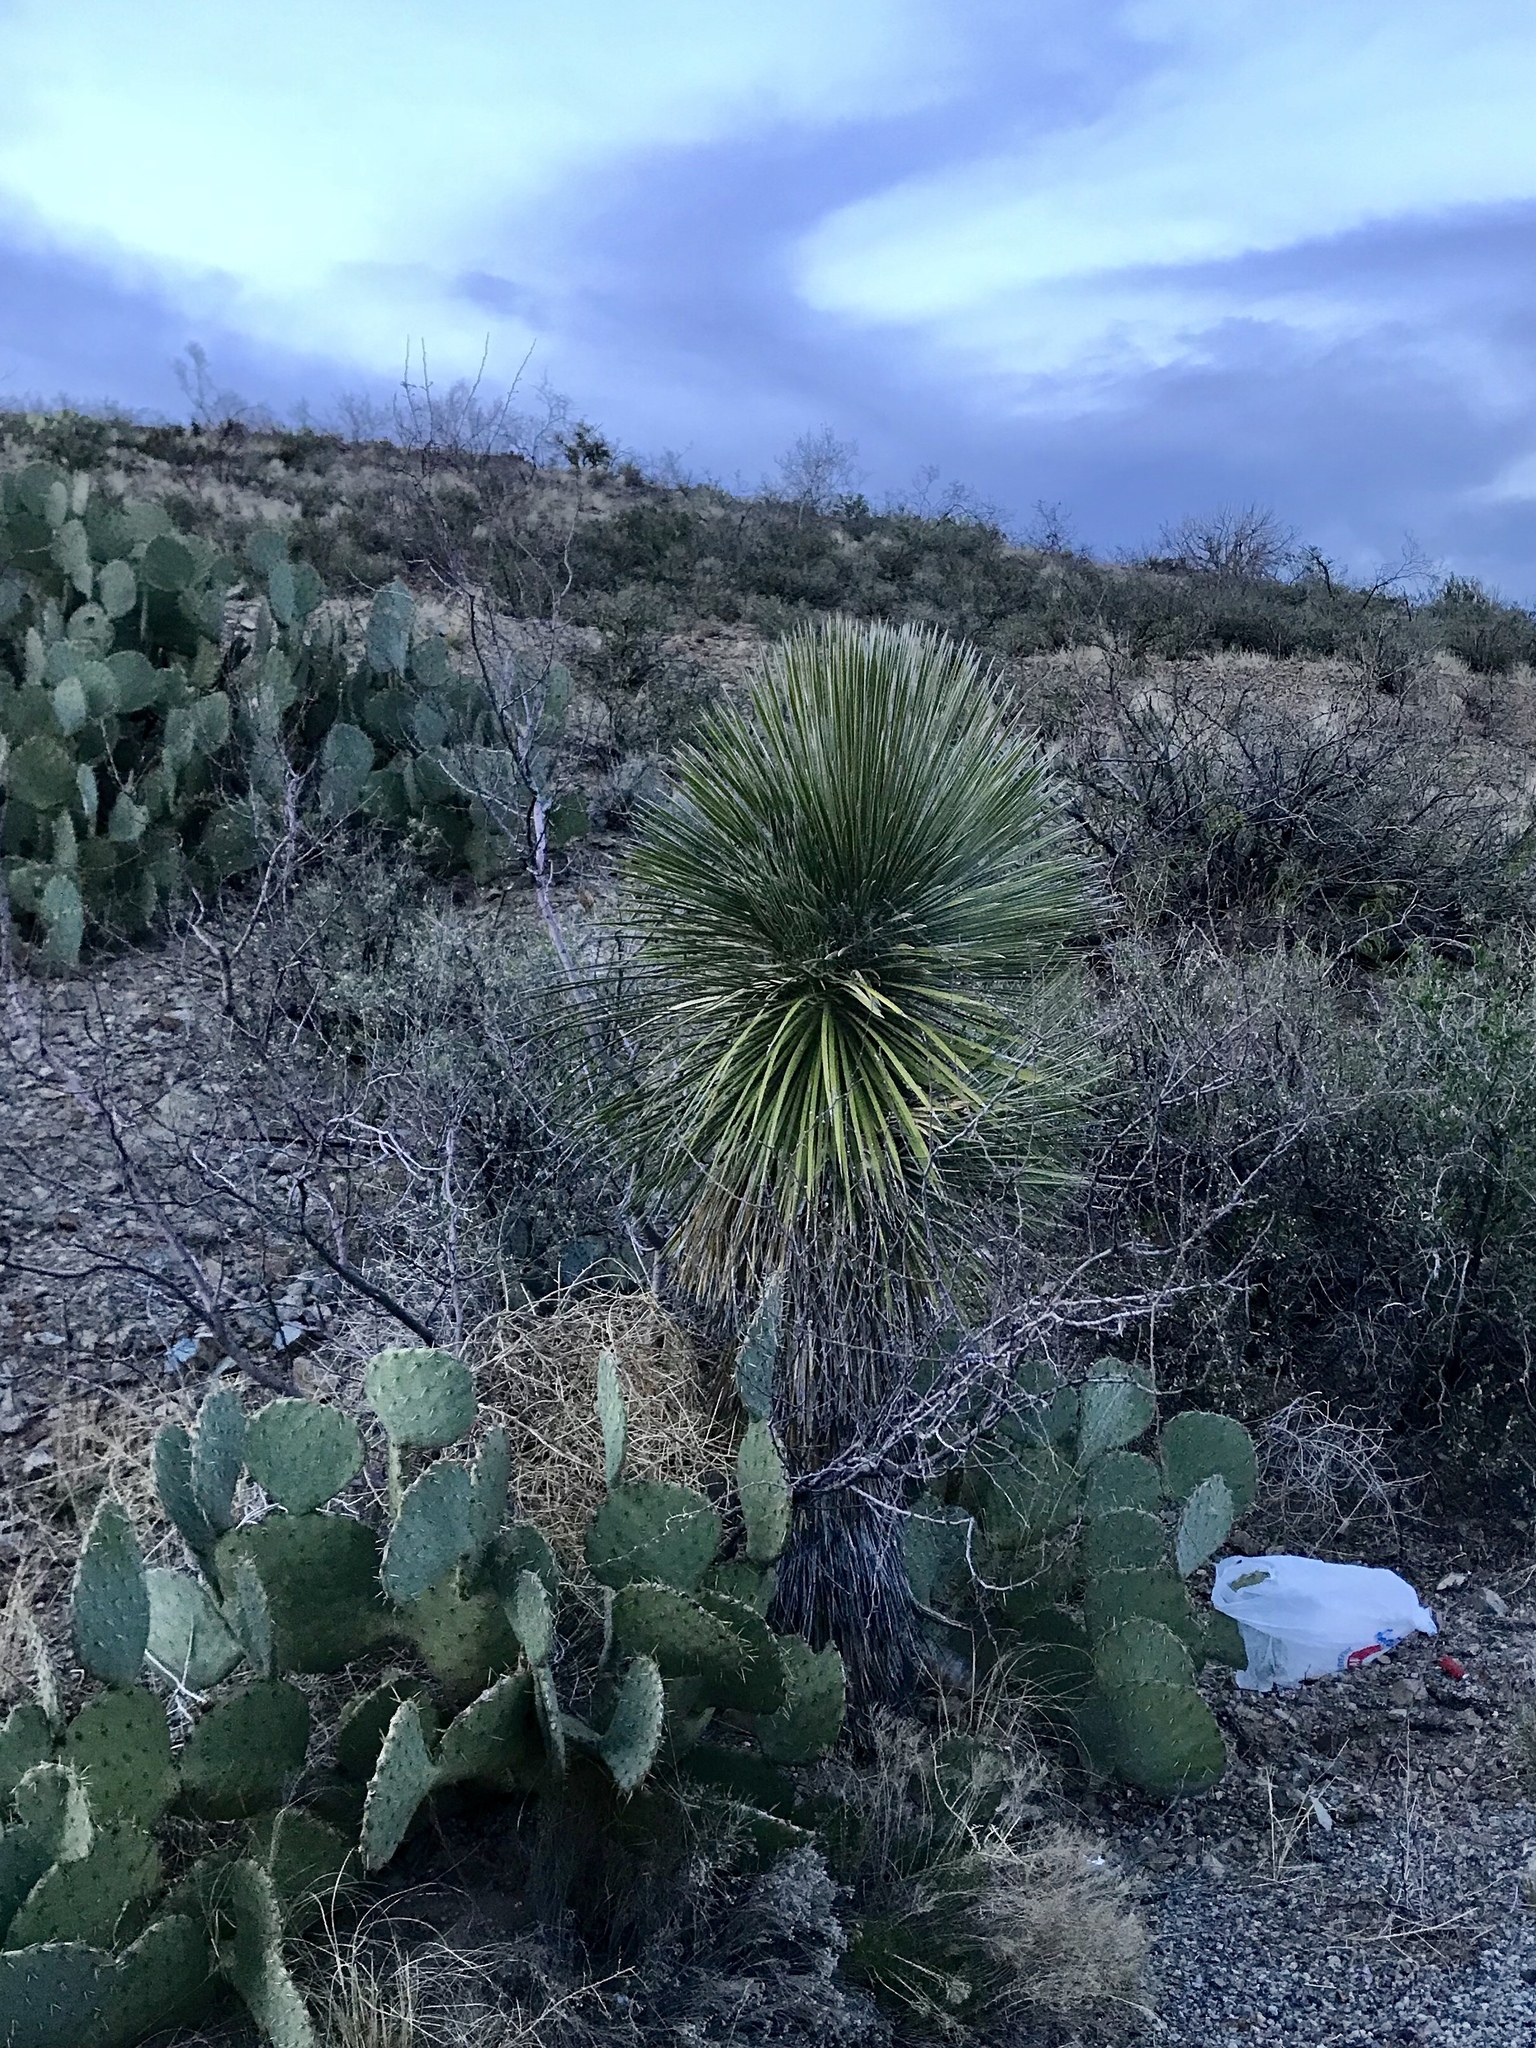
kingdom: Plantae
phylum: Tracheophyta
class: Liliopsida
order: Asparagales
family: Asparagaceae
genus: Yucca
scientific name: Yucca elata
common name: Palmella
